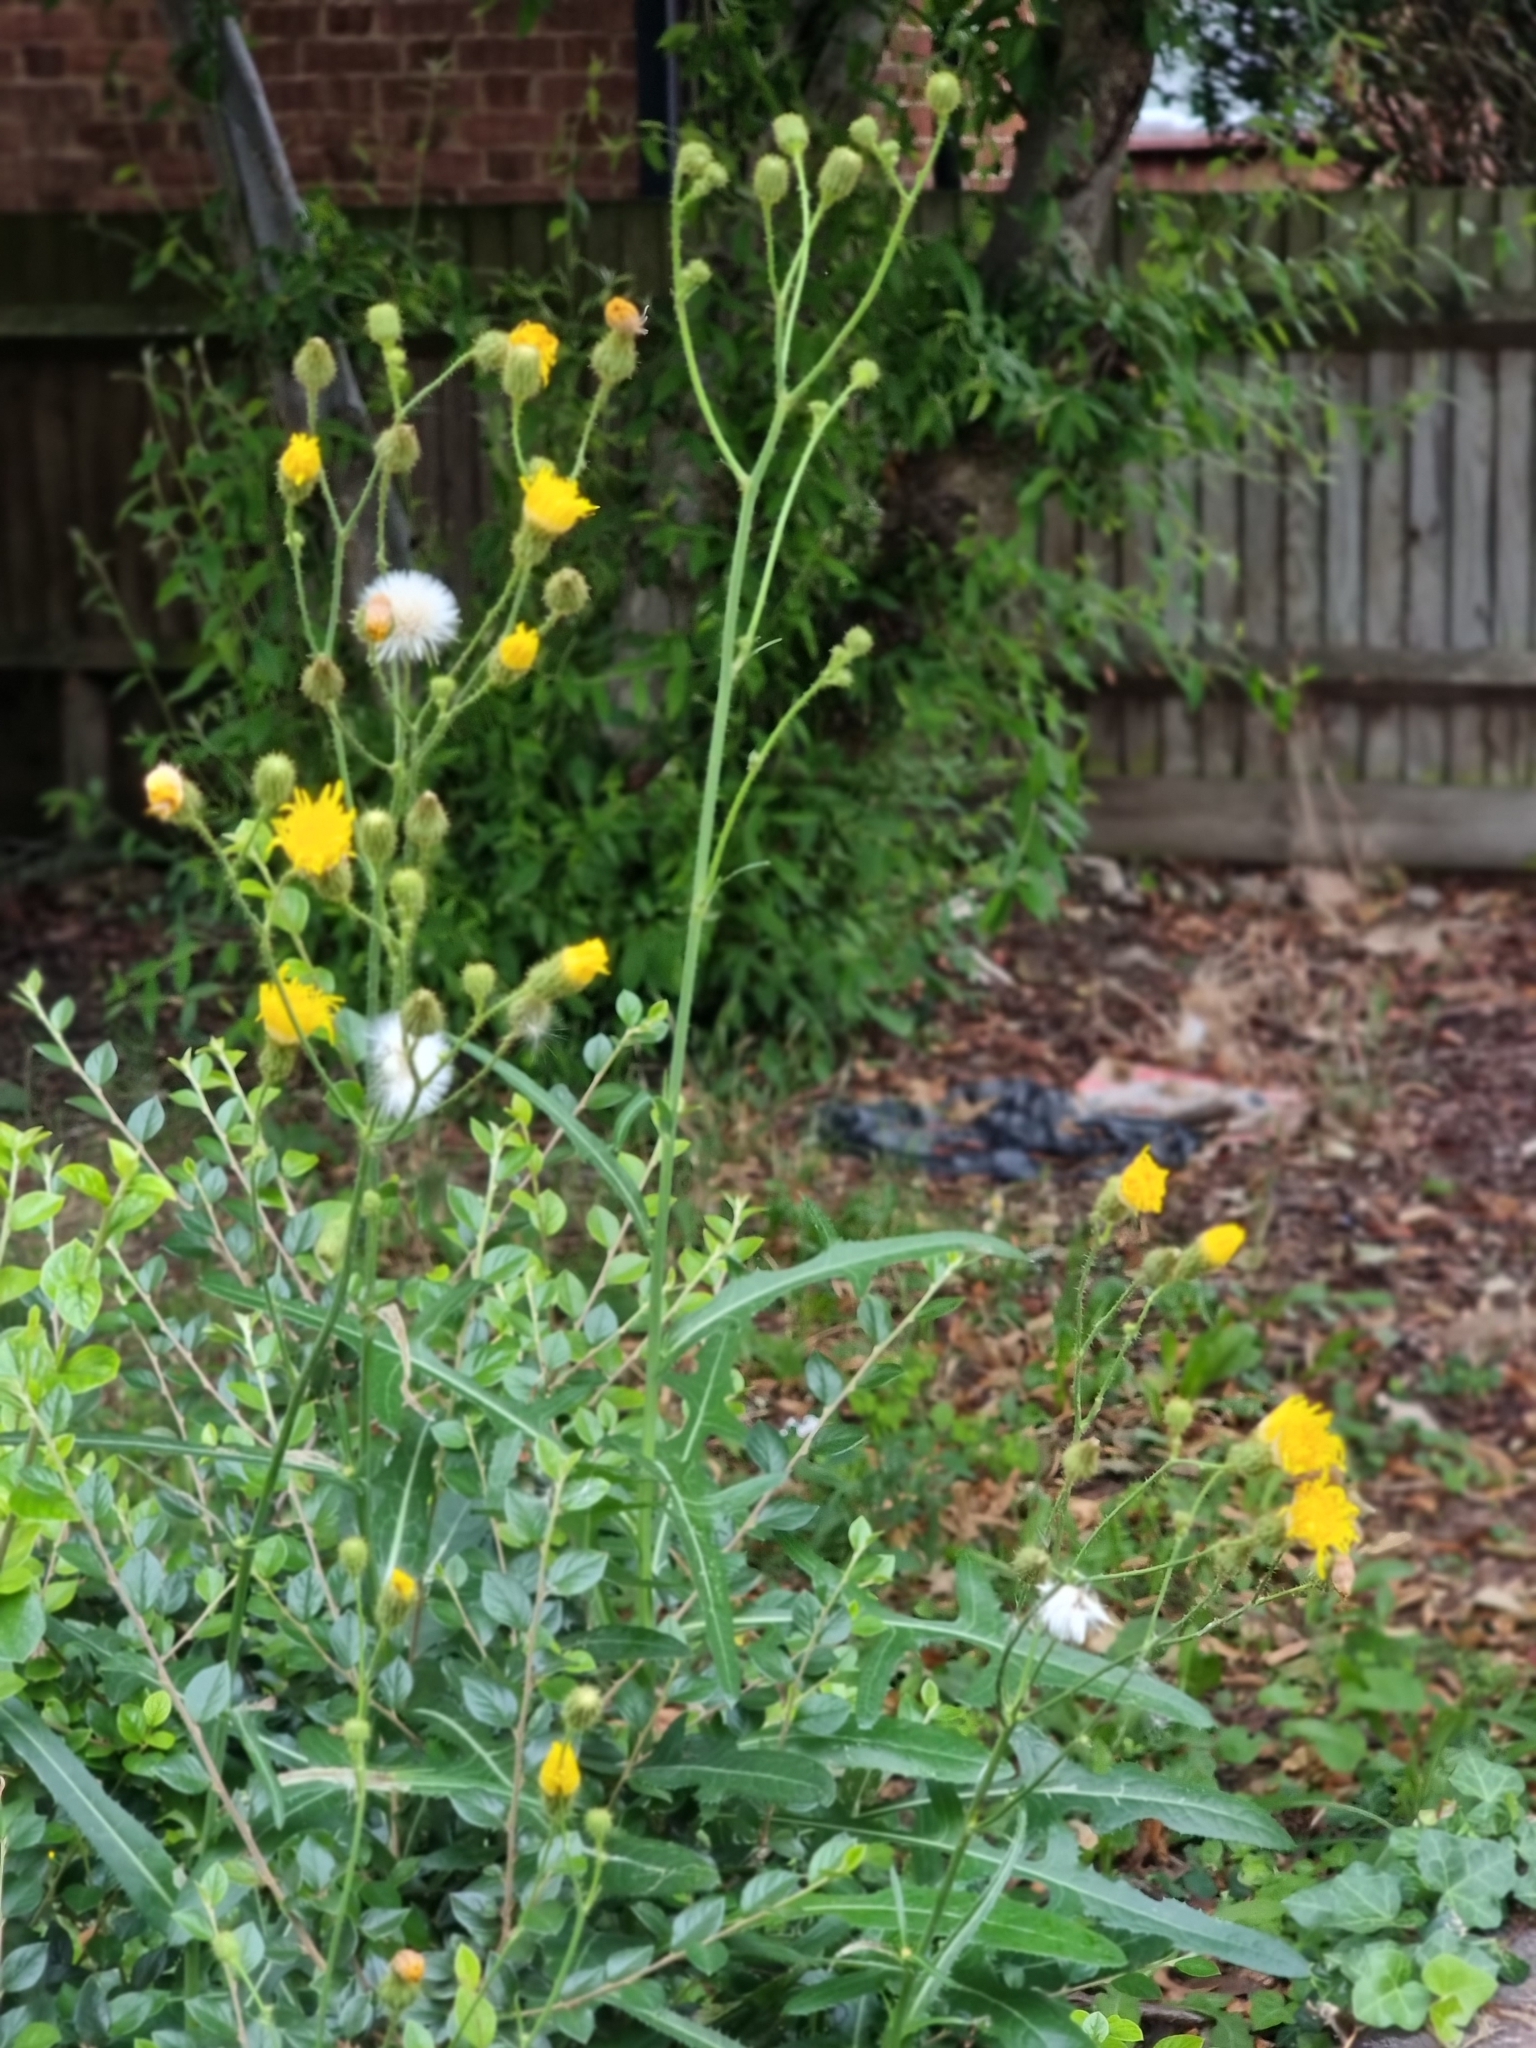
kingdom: Plantae
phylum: Tracheophyta
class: Magnoliopsida
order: Asterales
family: Asteraceae
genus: Sonchus
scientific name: Sonchus arvensis
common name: Perennial sow-thistle
